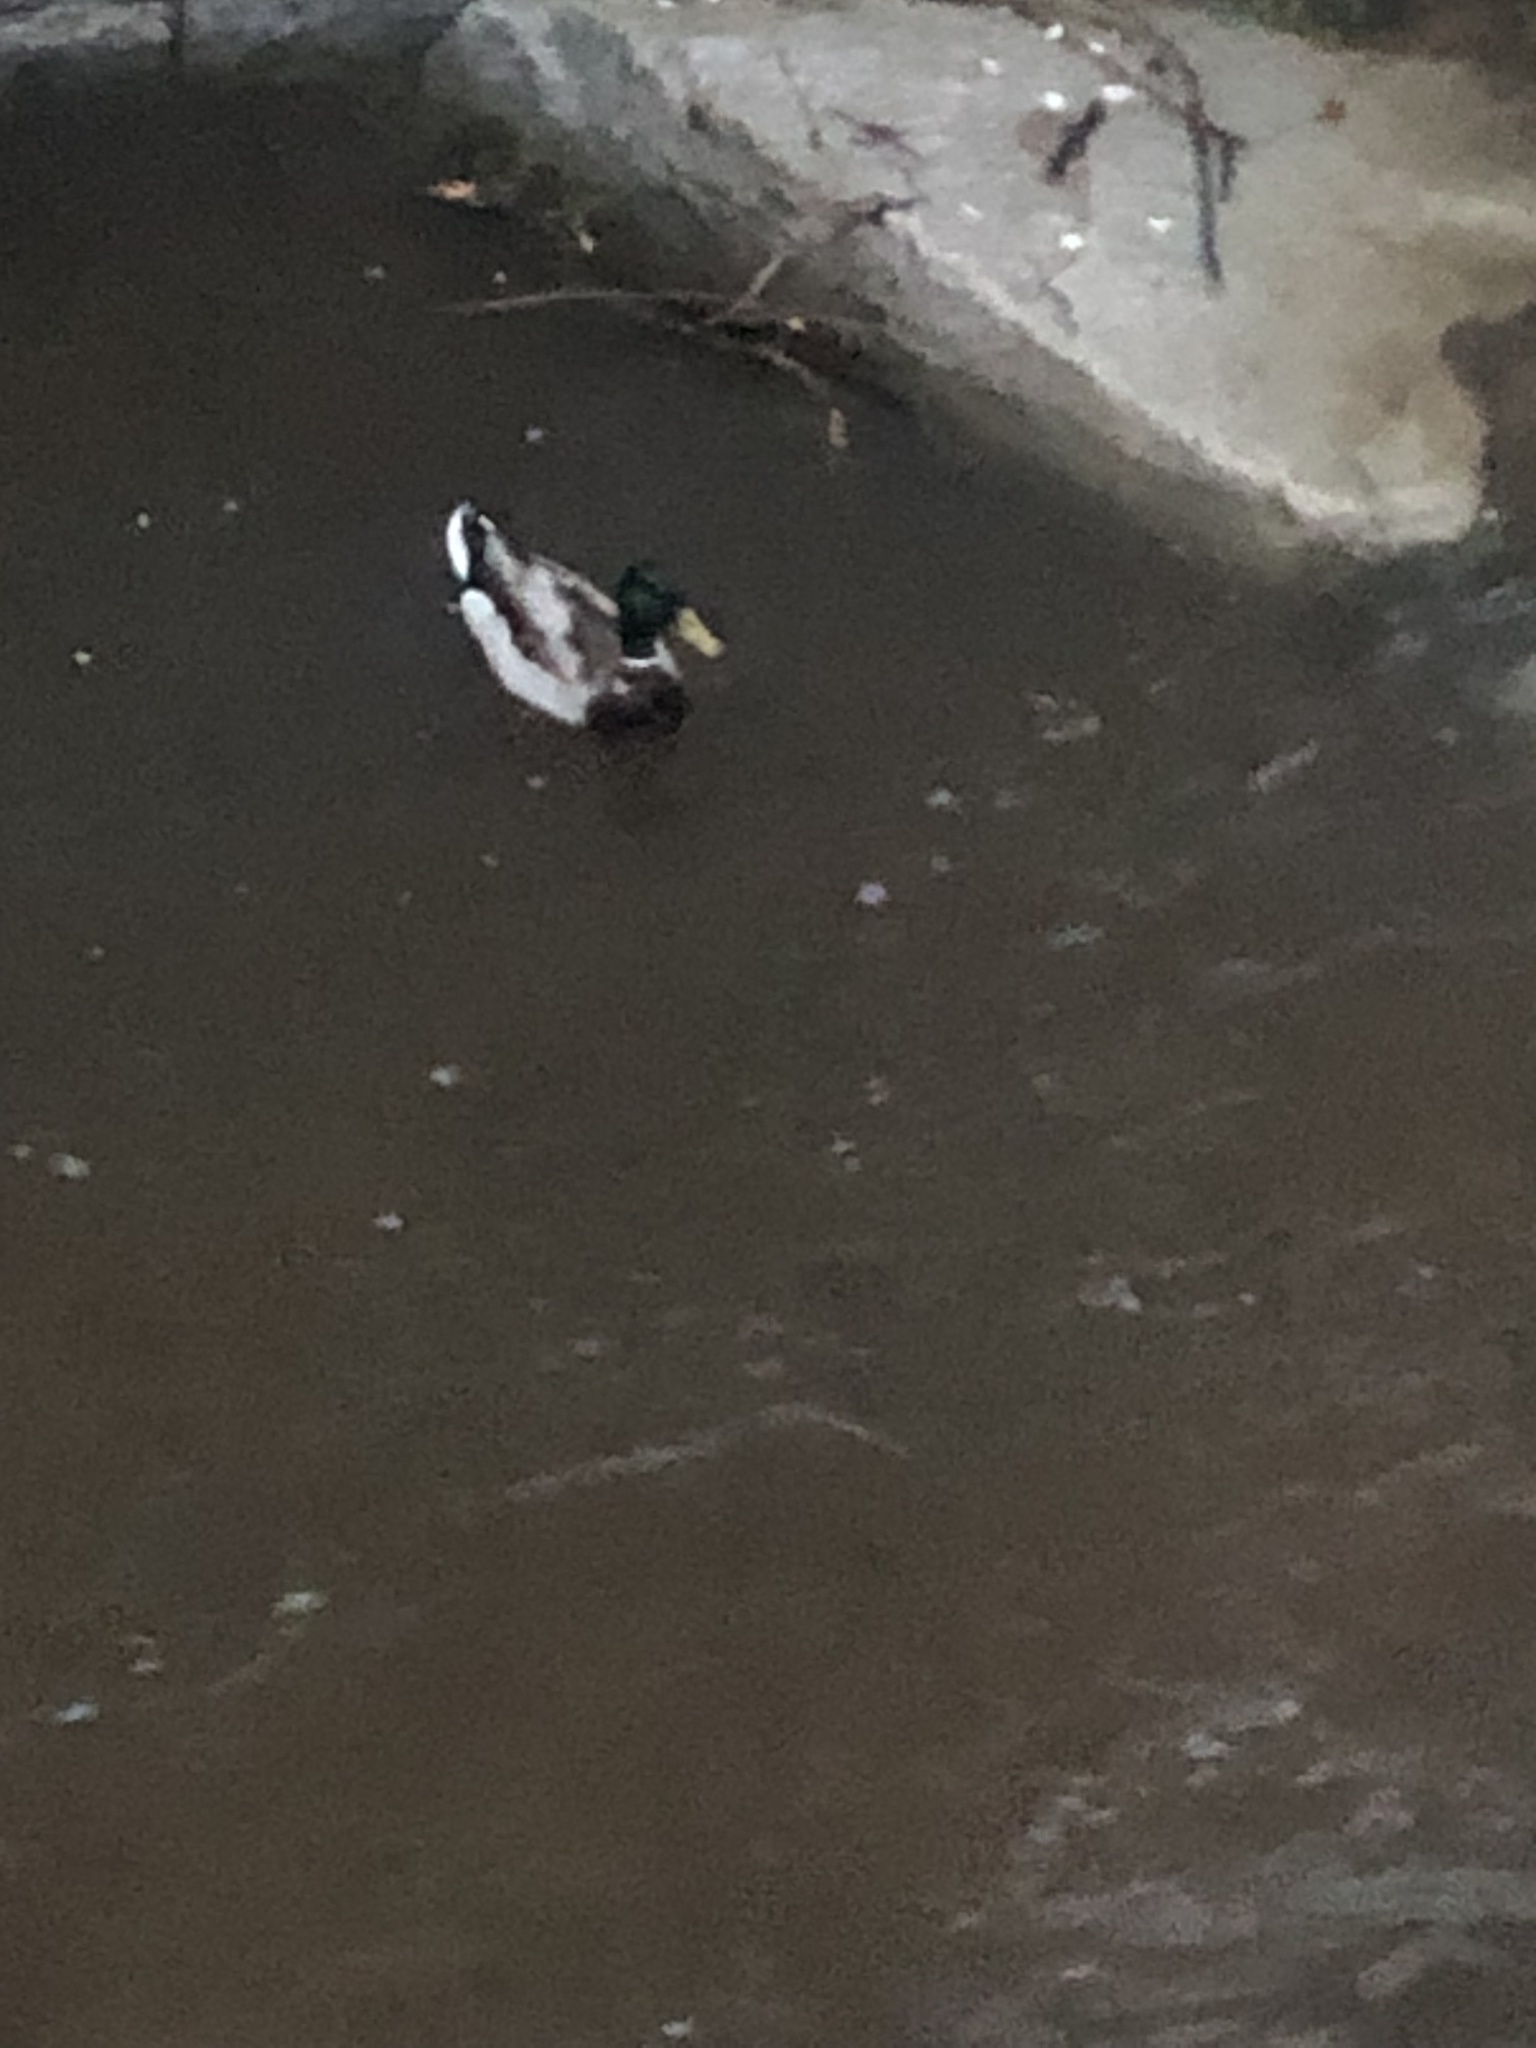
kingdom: Animalia
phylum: Chordata
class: Aves
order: Anseriformes
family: Anatidae
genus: Anas
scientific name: Anas platyrhynchos
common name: Mallard
